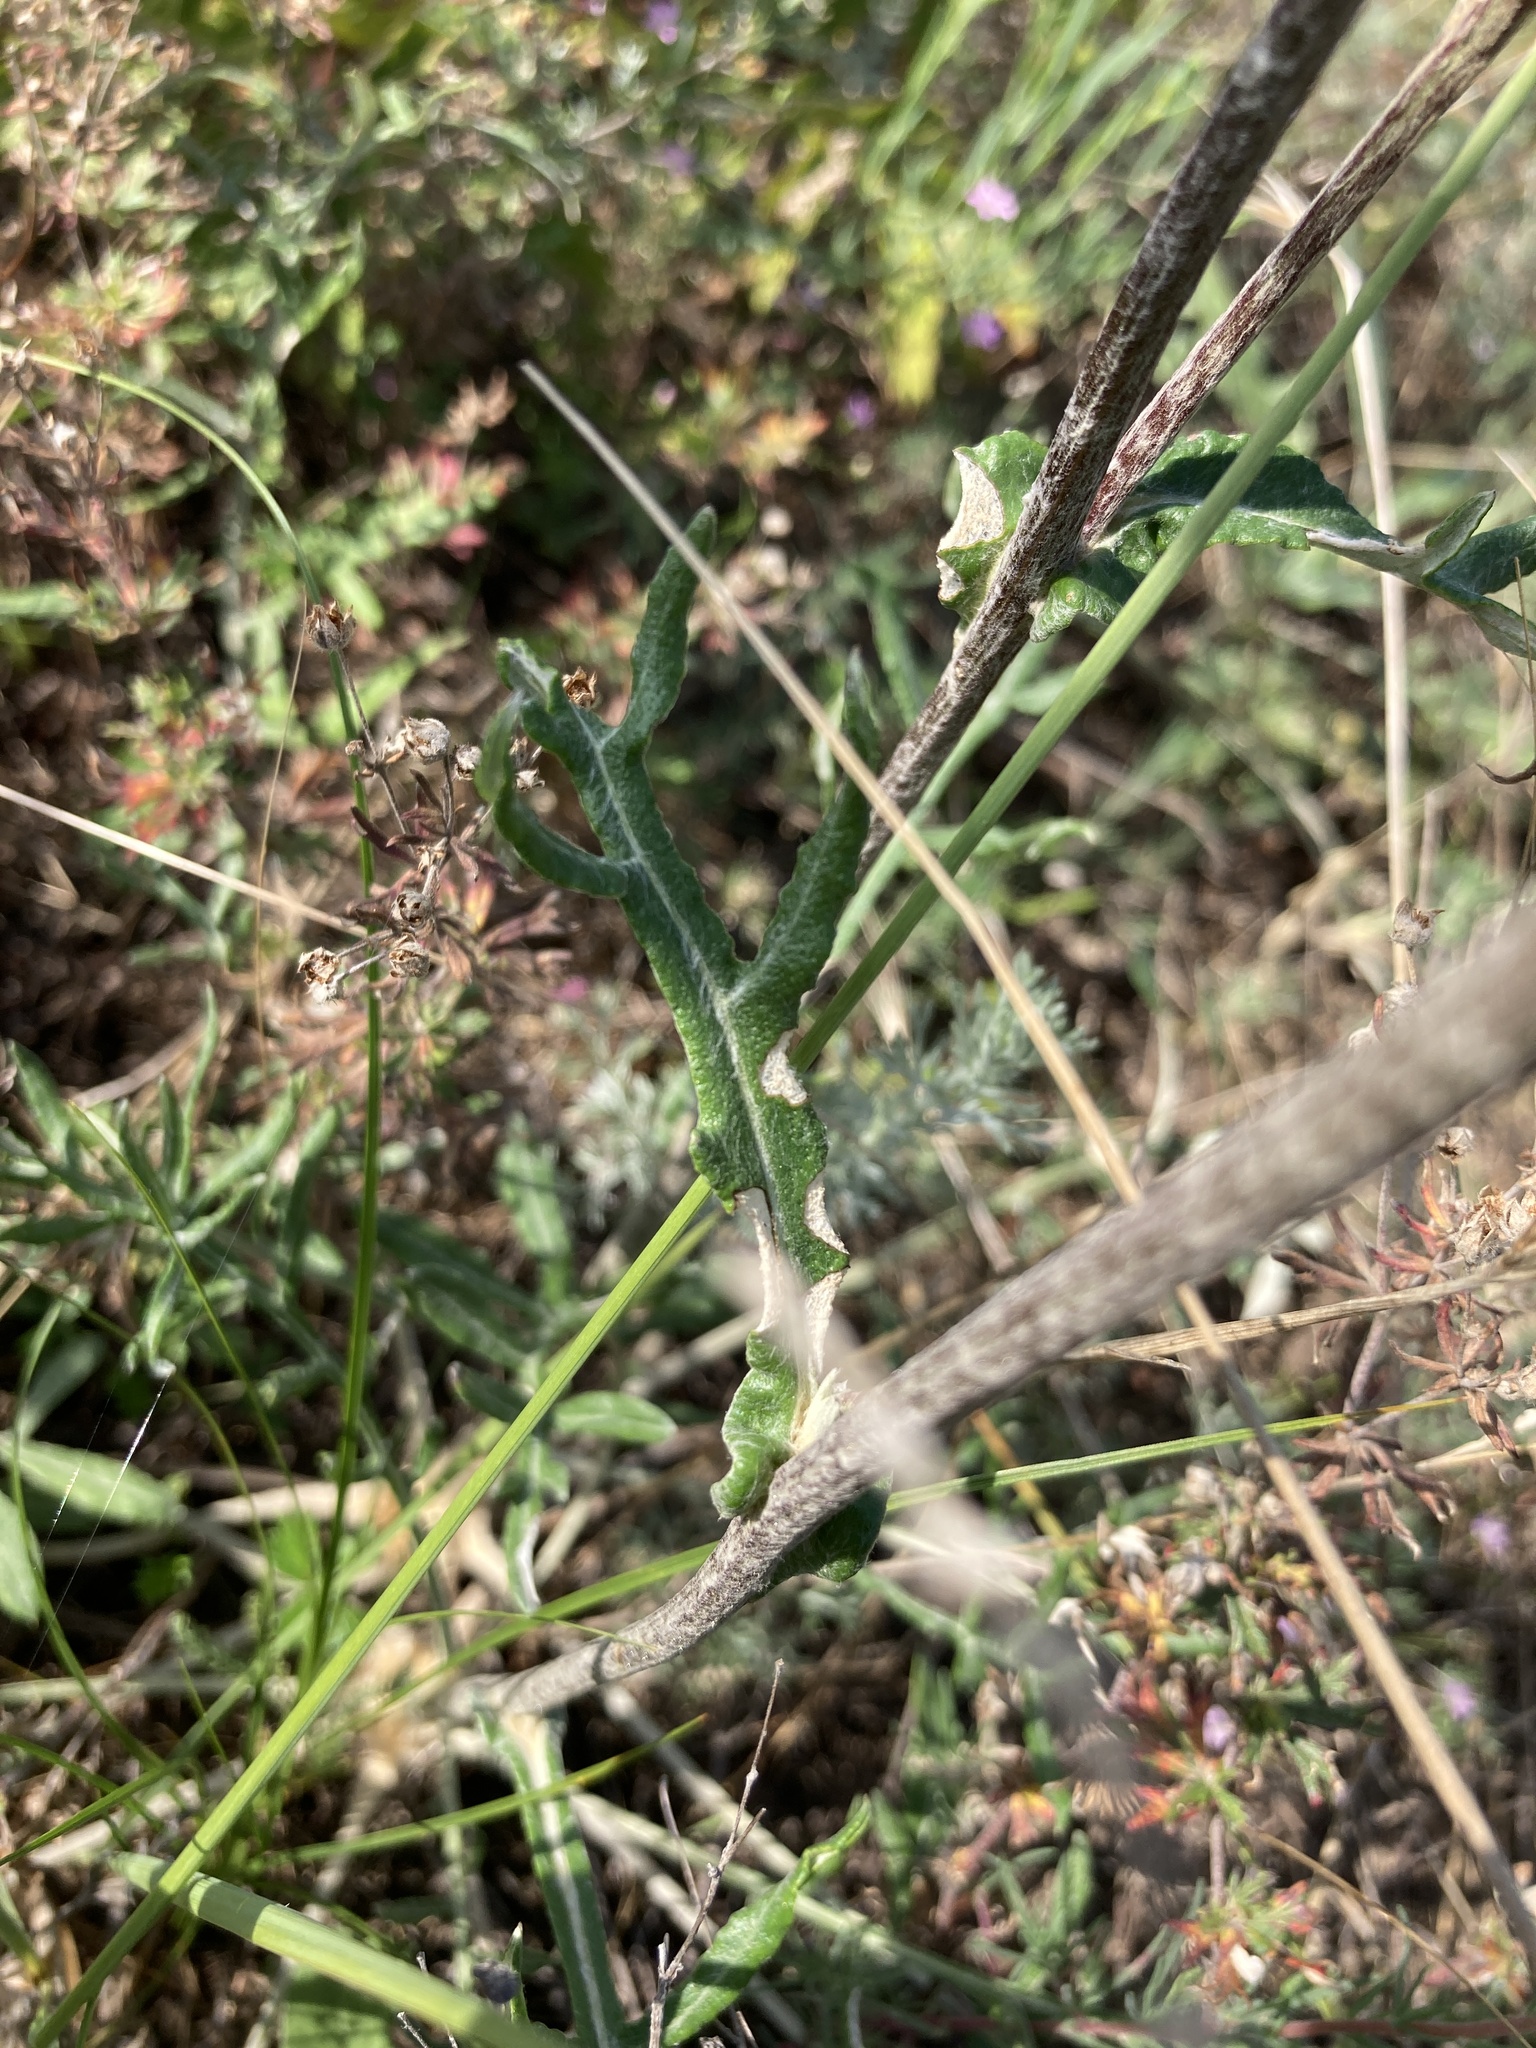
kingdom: Plantae
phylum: Tracheophyta
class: Magnoliopsida
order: Asterales
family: Asteraceae
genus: Jurinea
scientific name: Jurinea cyanoides
